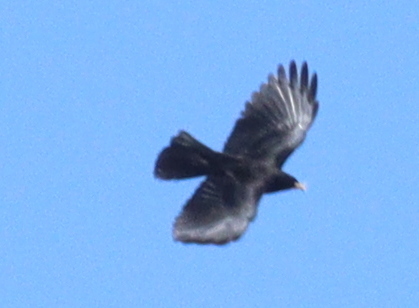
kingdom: Animalia
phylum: Chordata
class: Aves
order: Passeriformes
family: Corvidae
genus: Pyrrhocorax
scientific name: Pyrrhocorax graculus
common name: Alpine chough
